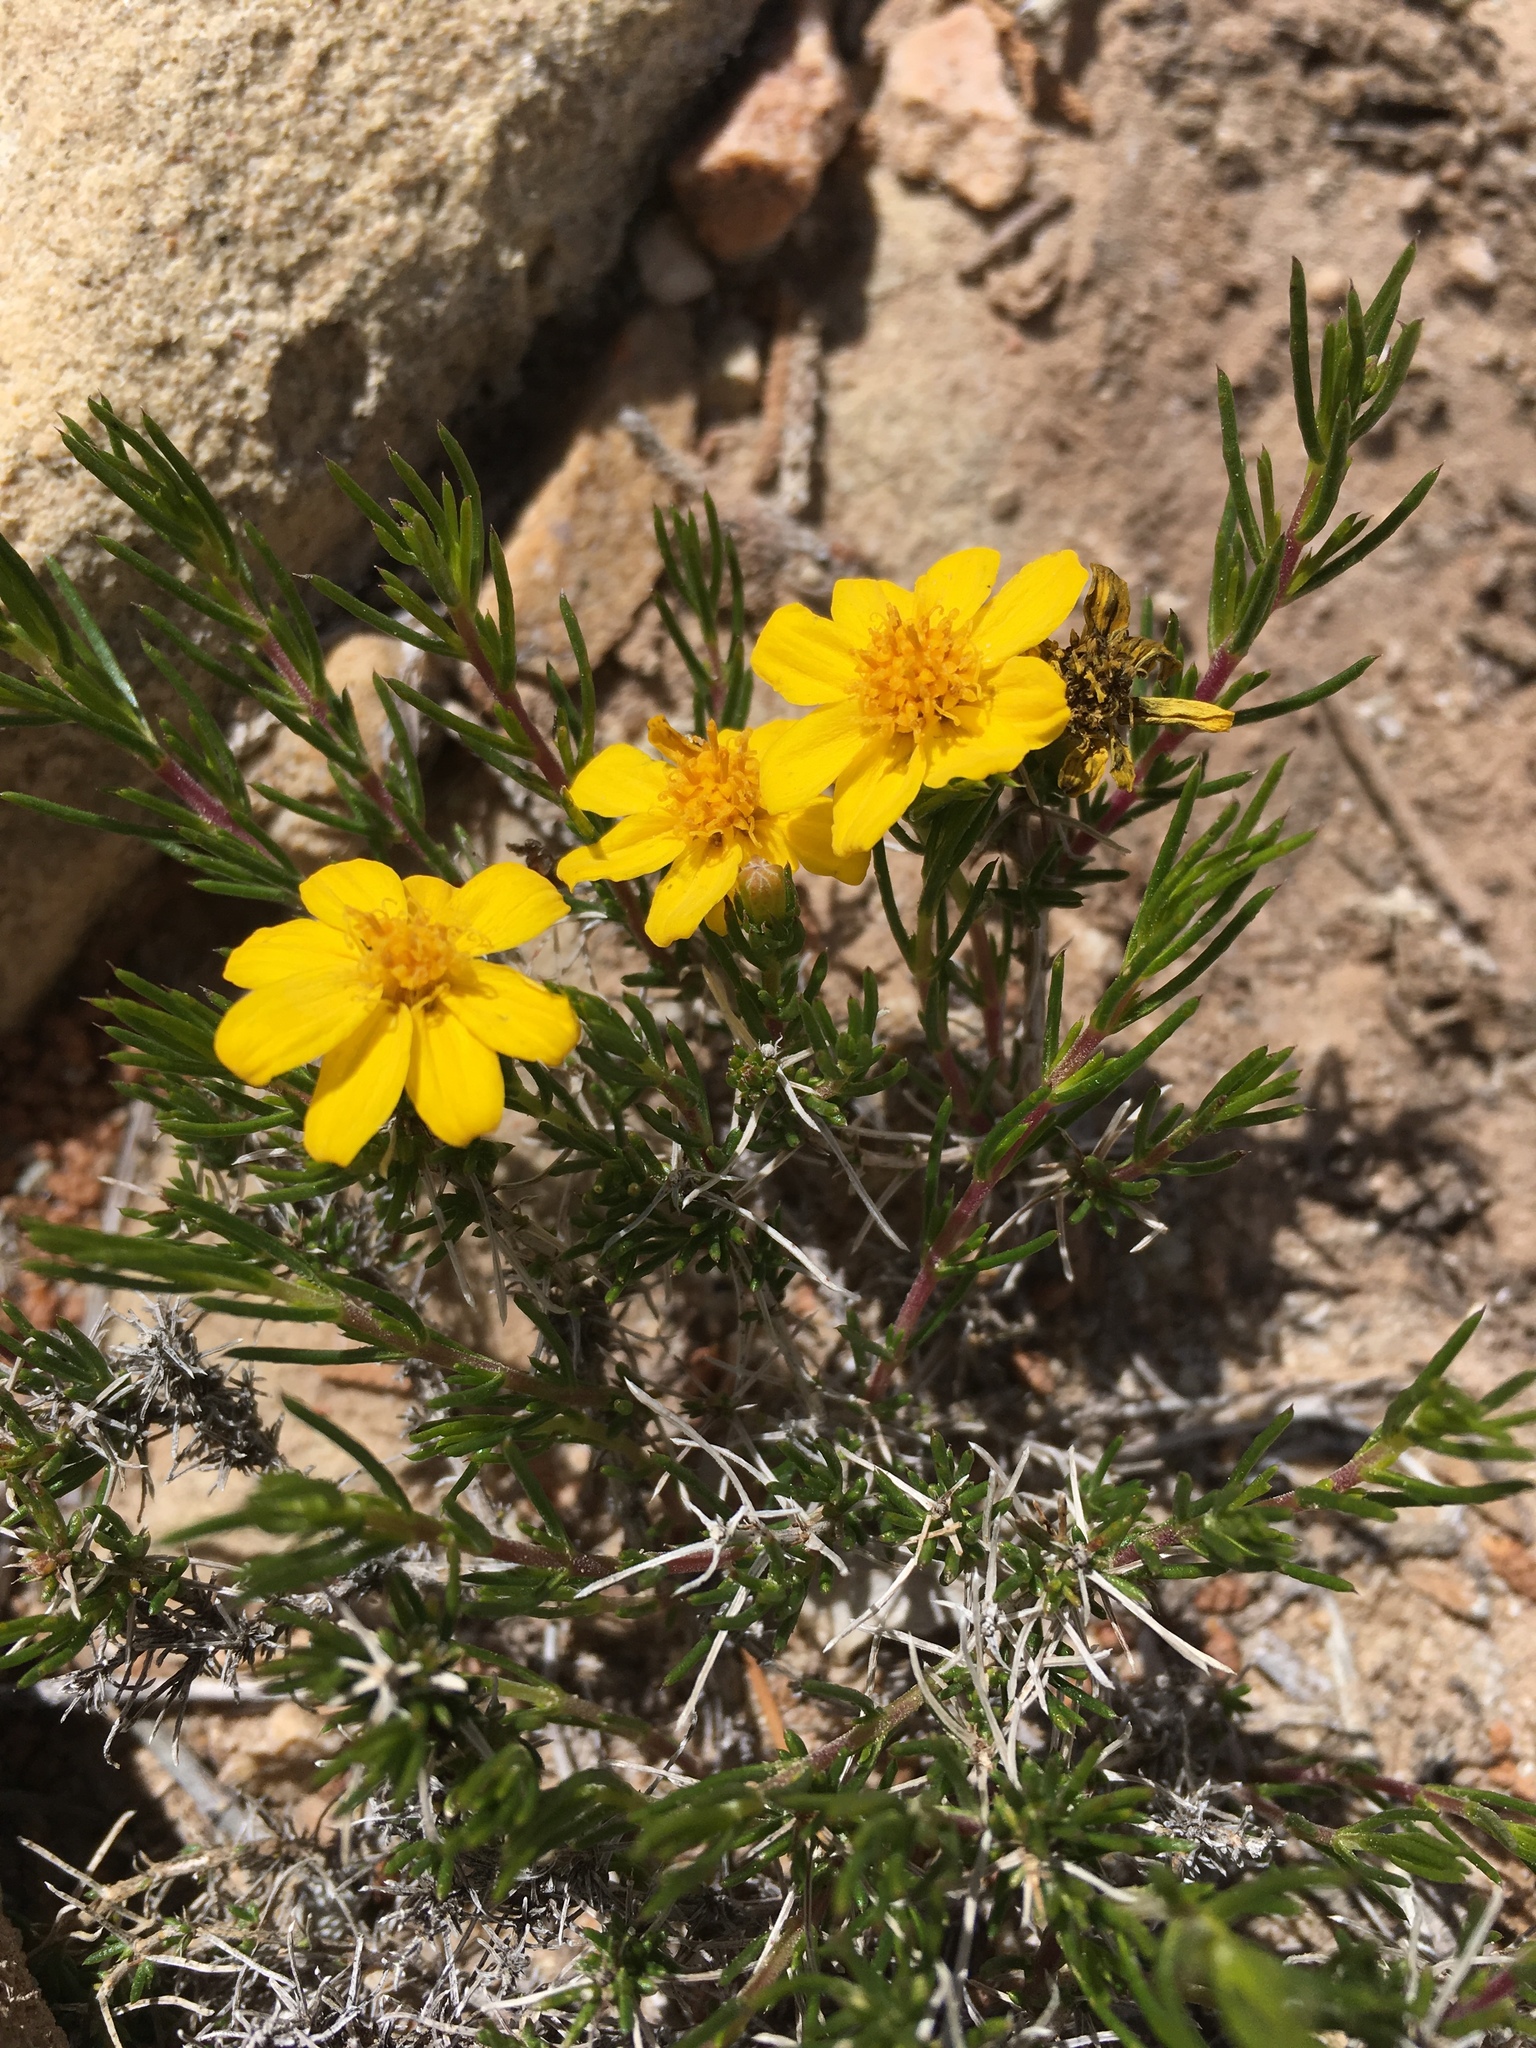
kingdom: Plantae
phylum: Tracheophyta
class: Magnoliopsida
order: Asterales
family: Asteraceae
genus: Thymophylla
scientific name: Thymophylla acerosa
